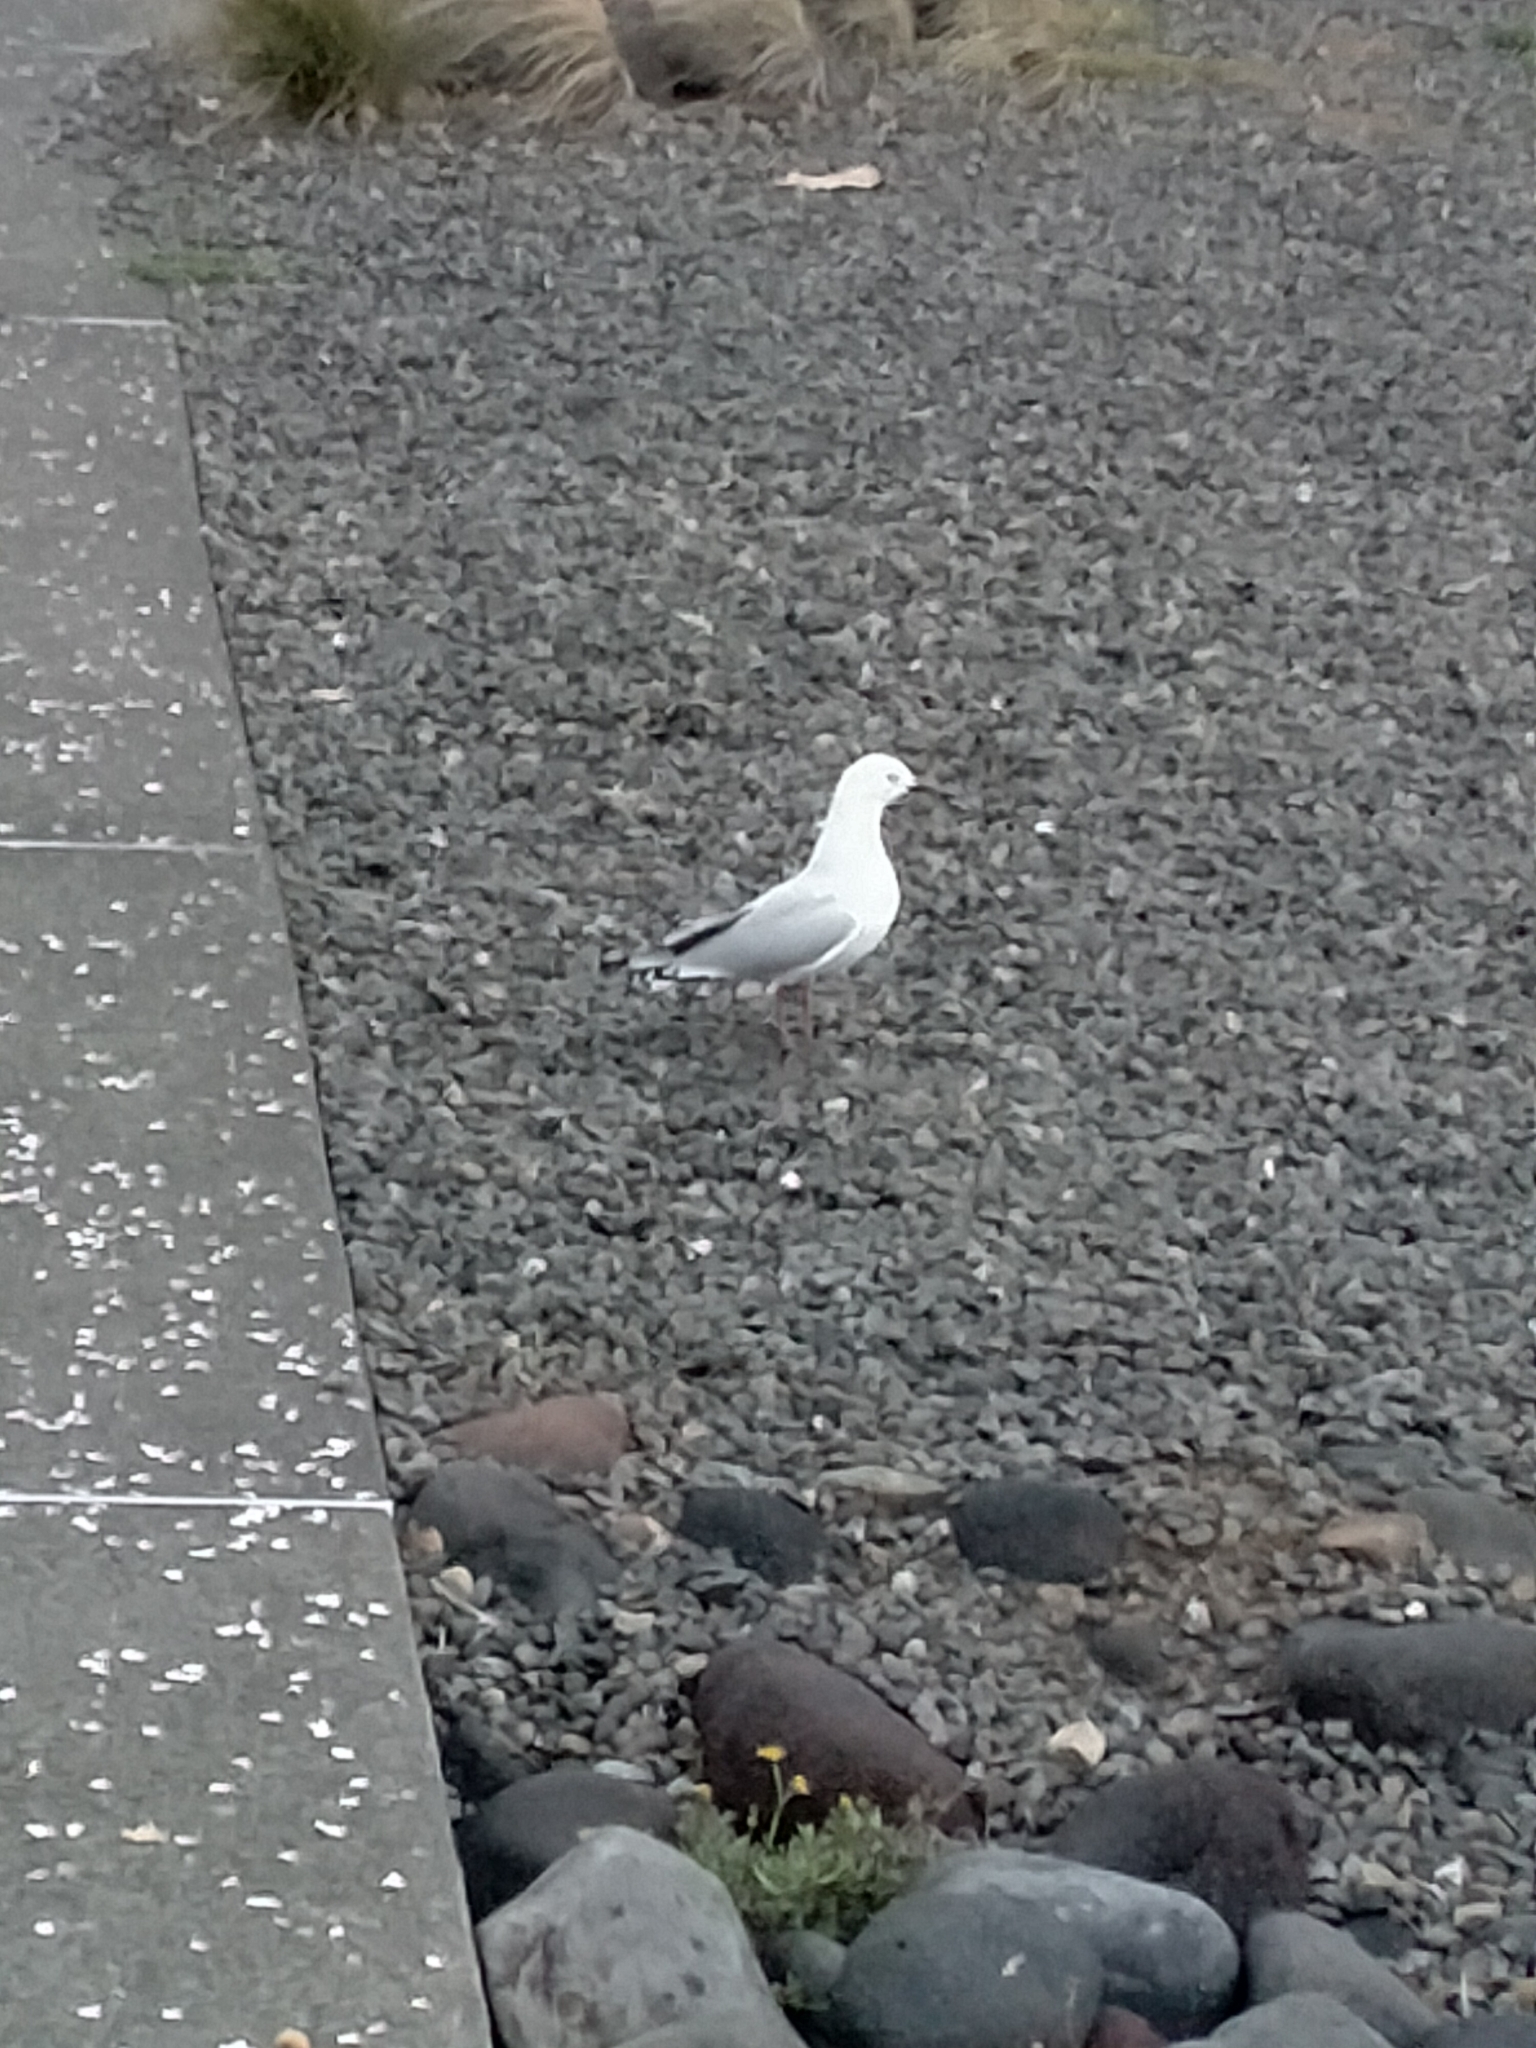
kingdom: Animalia
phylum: Chordata
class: Aves
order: Charadriiformes
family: Laridae
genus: Chroicocephalus
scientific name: Chroicocephalus bulleri
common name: Black-billed gull
